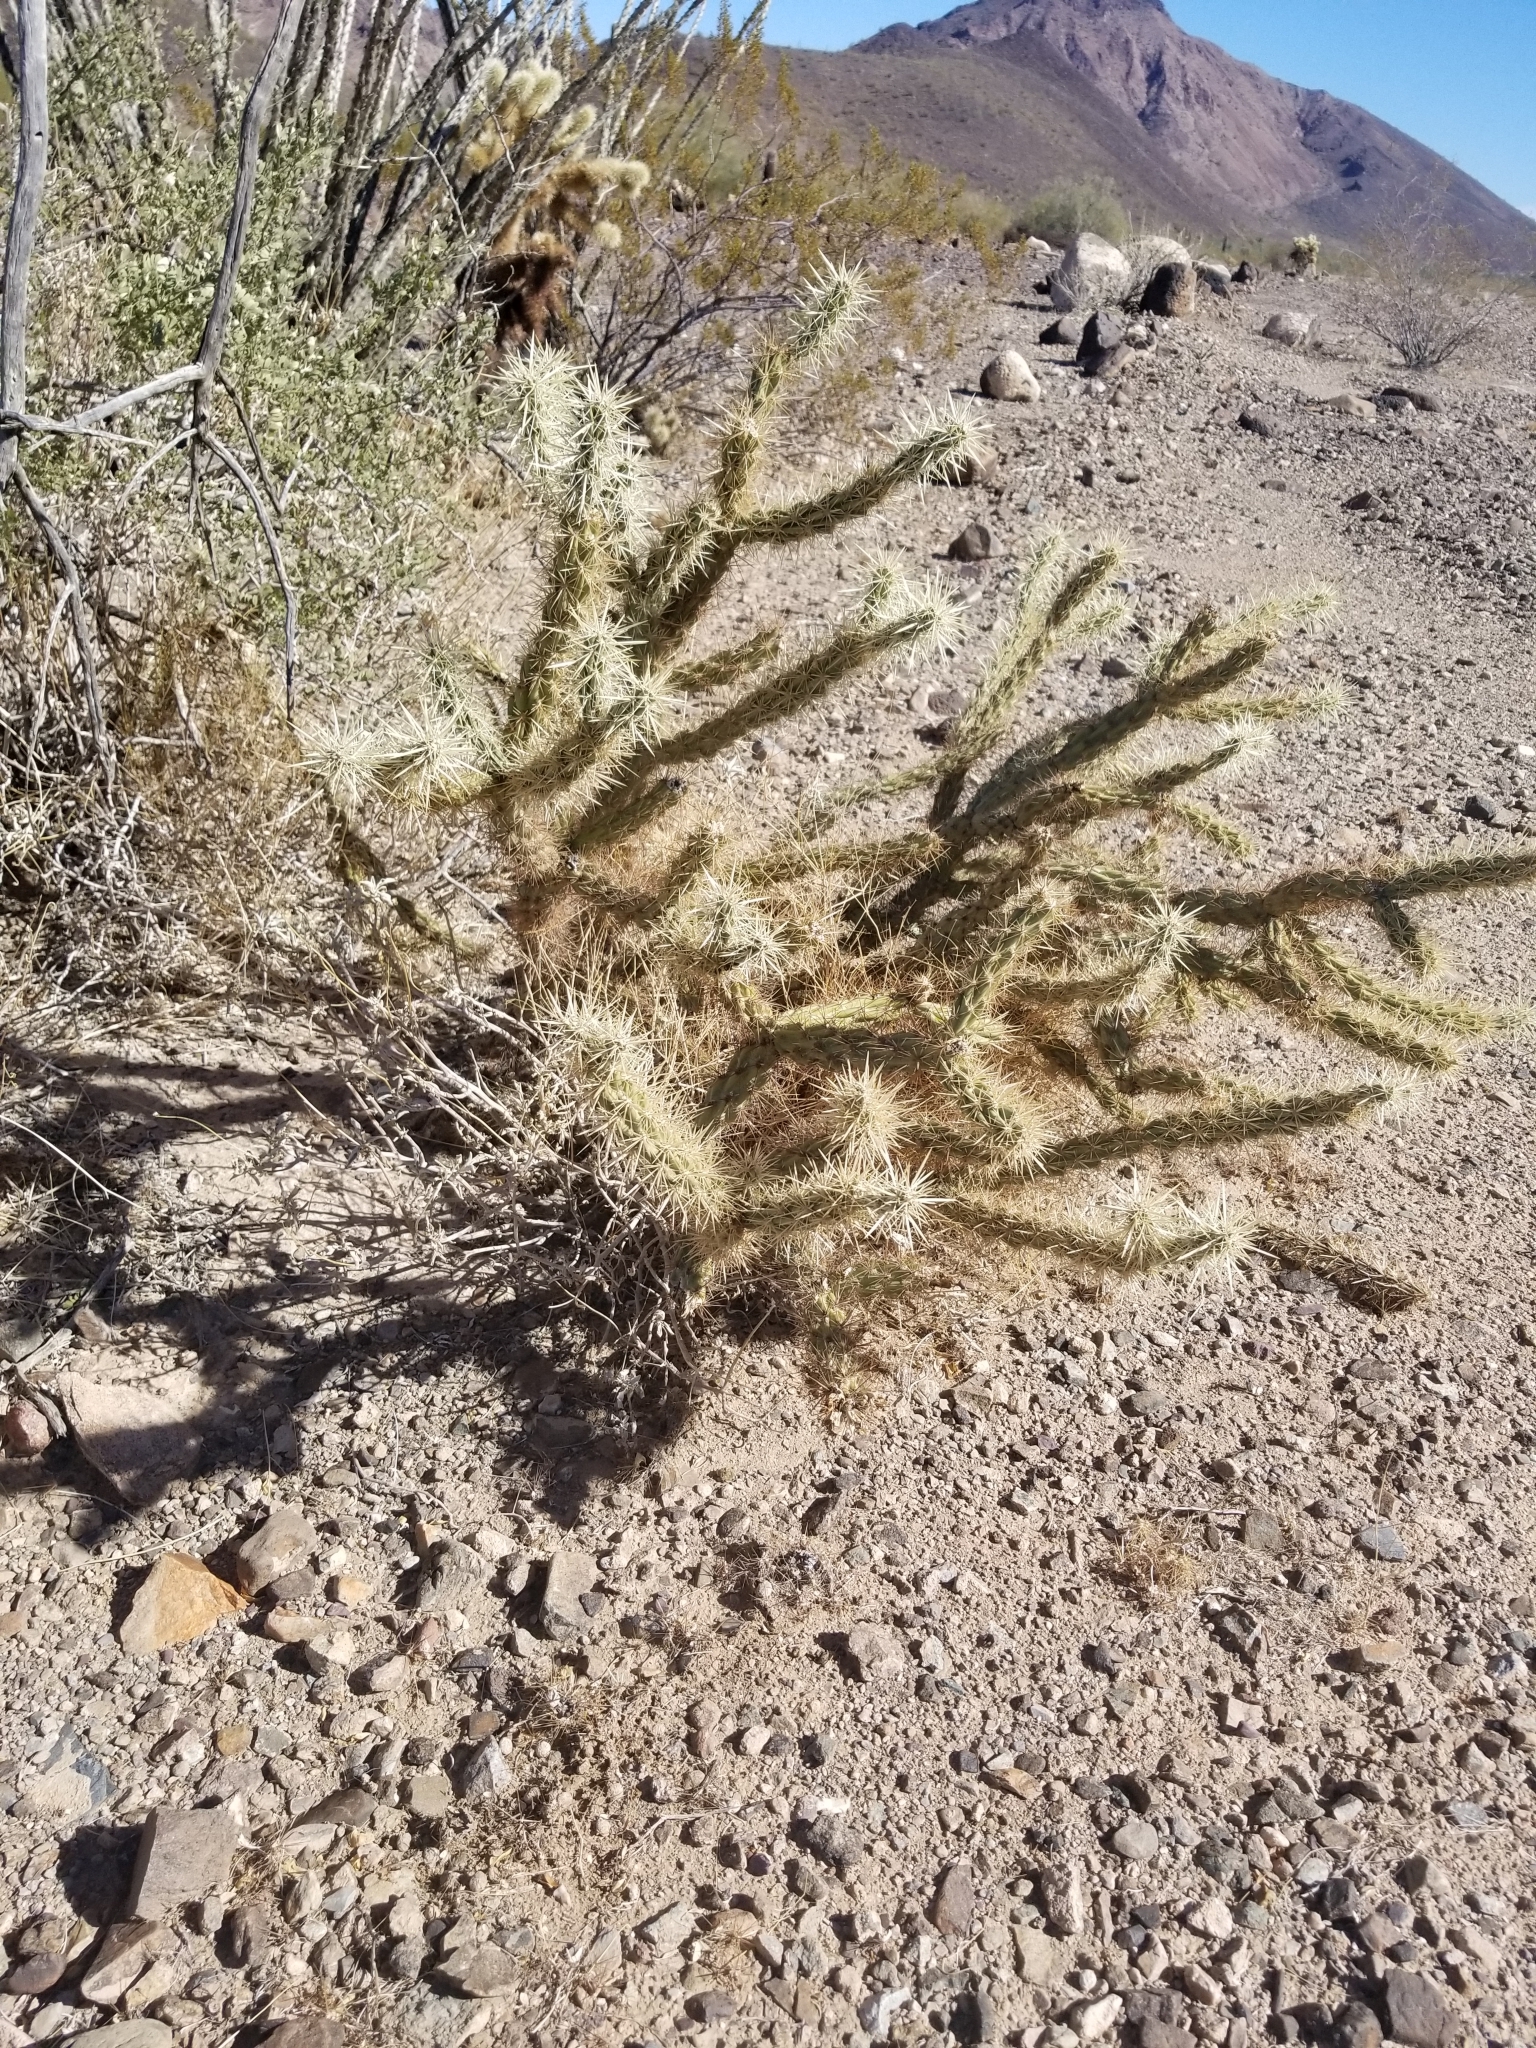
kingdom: Plantae
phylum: Tracheophyta
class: Magnoliopsida
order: Caryophyllales
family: Cactaceae
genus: Cylindropuntia
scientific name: Cylindropuntia acanthocarpa
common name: Buckhorn cholla
